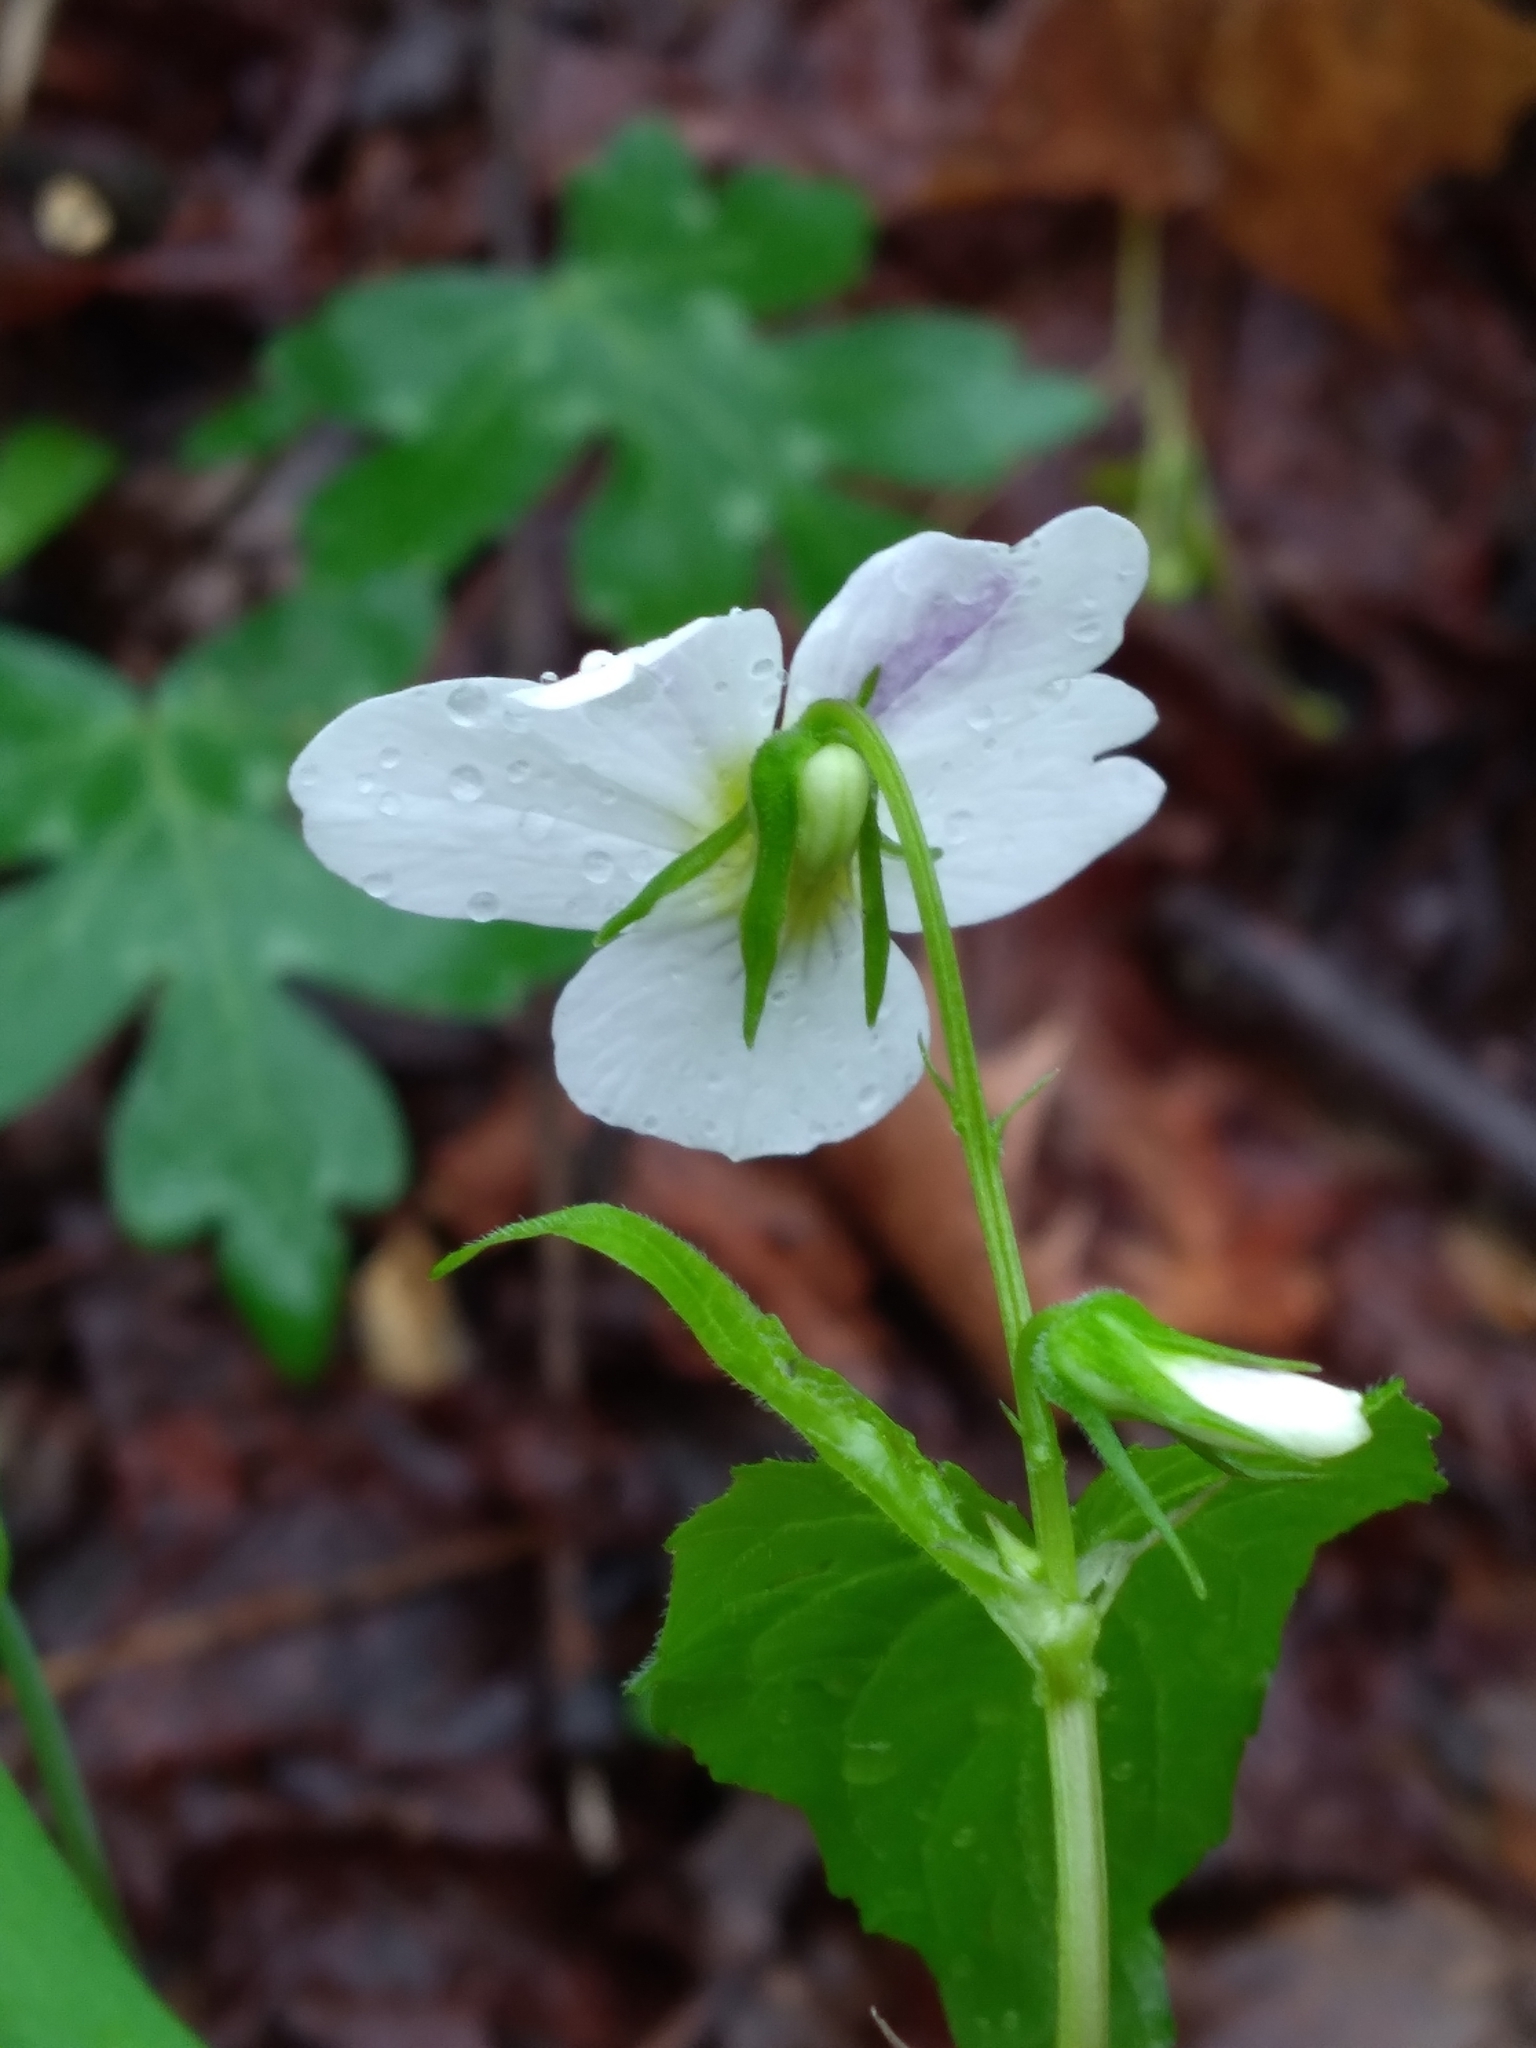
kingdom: Plantae
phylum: Tracheophyta
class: Magnoliopsida
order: Malpighiales
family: Violaceae
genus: Viola
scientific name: Viola canadensis
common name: Canada violet
